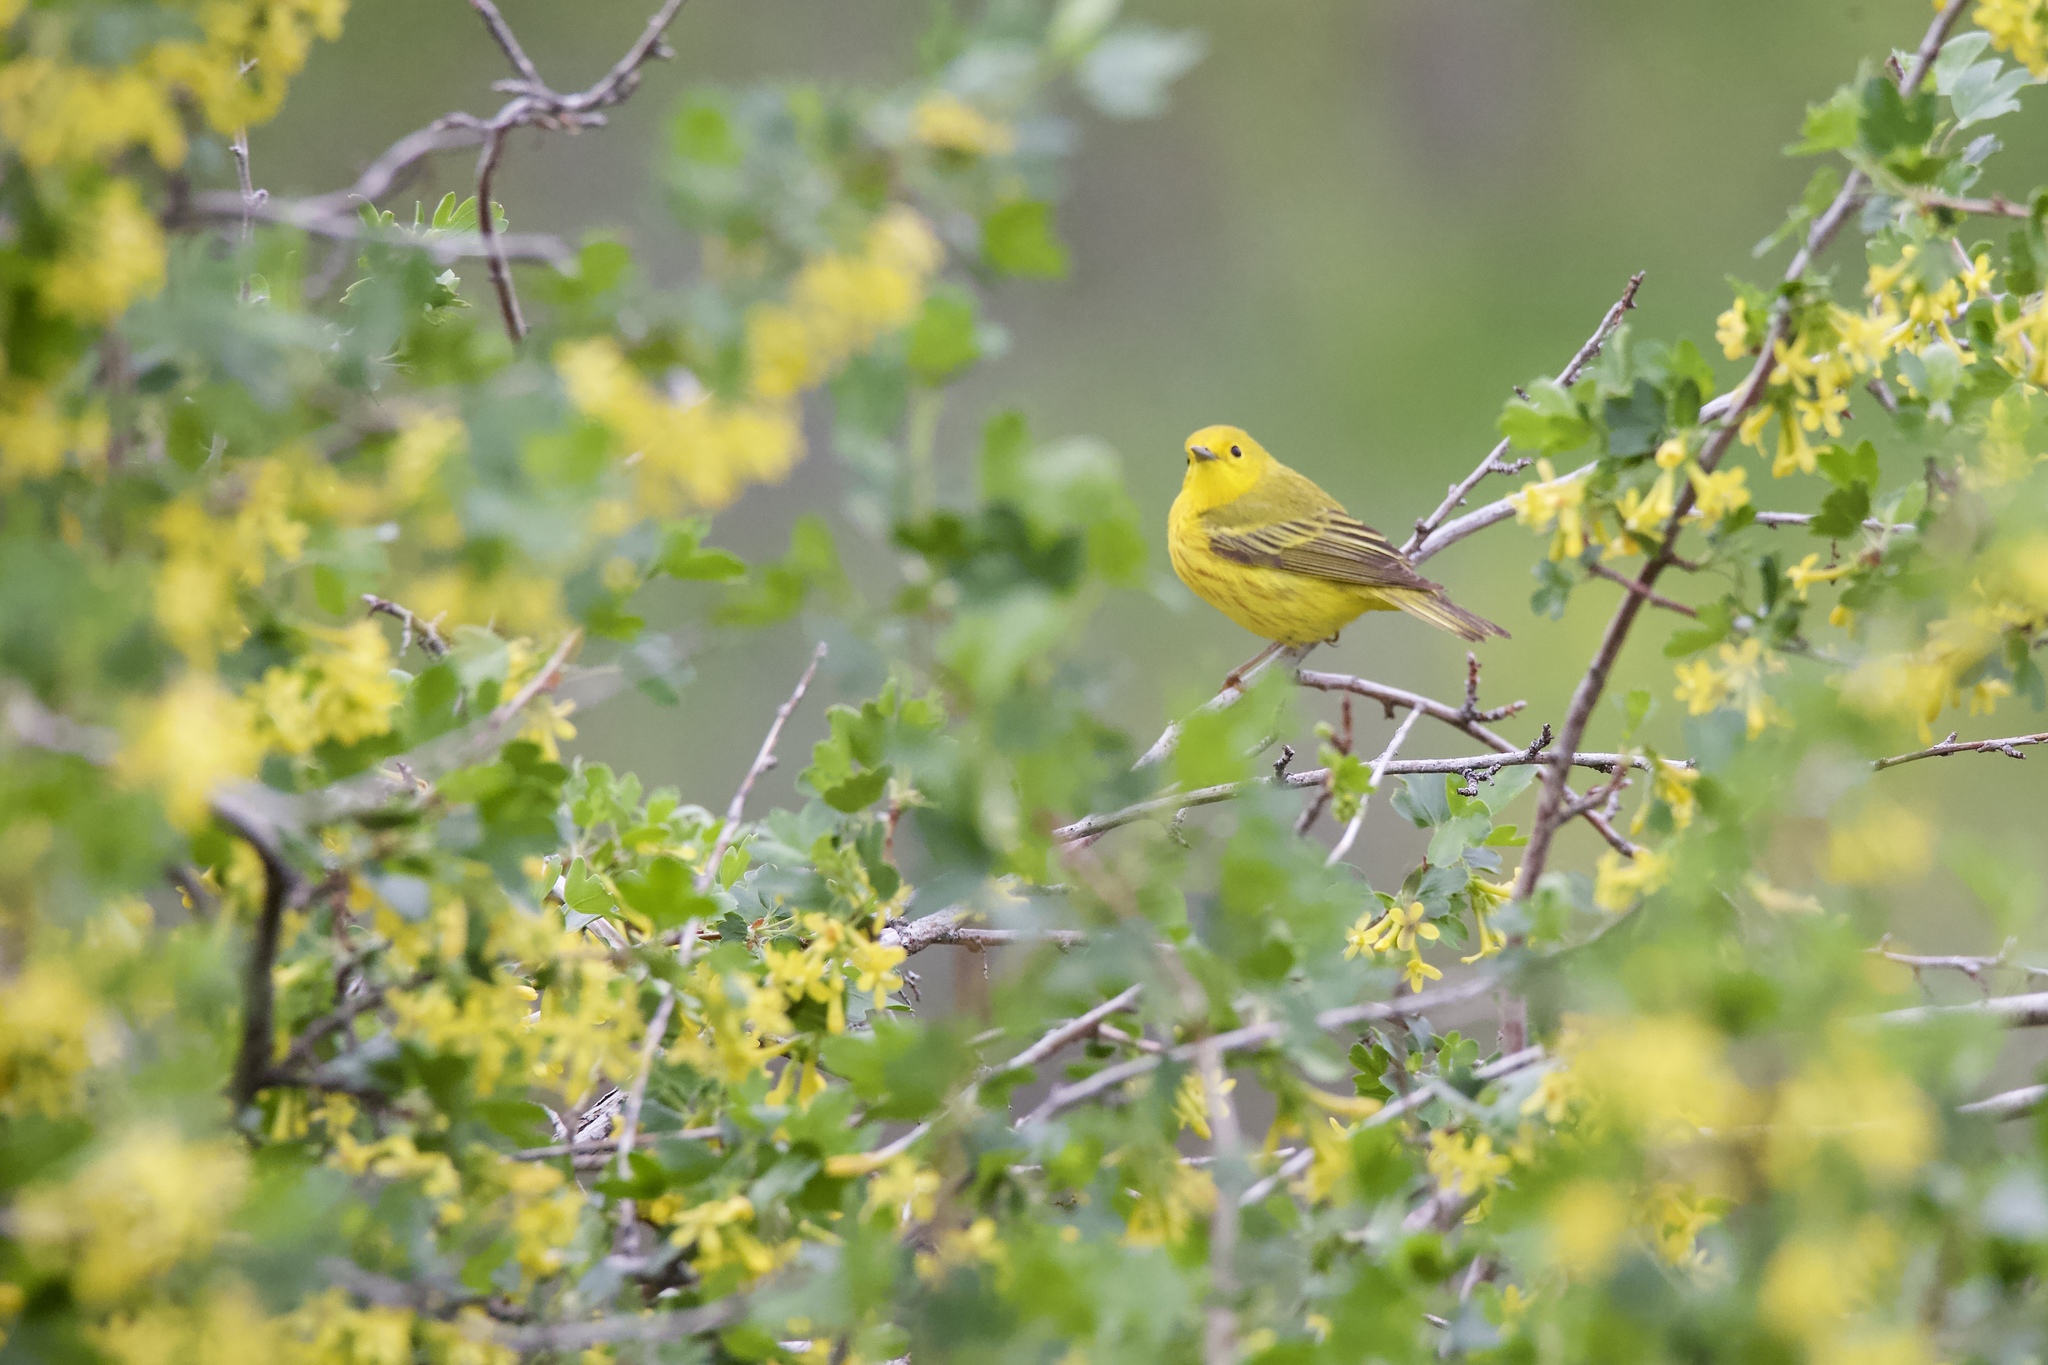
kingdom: Animalia
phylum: Chordata
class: Aves
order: Passeriformes
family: Parulidae
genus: Setophaga
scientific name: Setophaga petechia
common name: Yellow warbler
